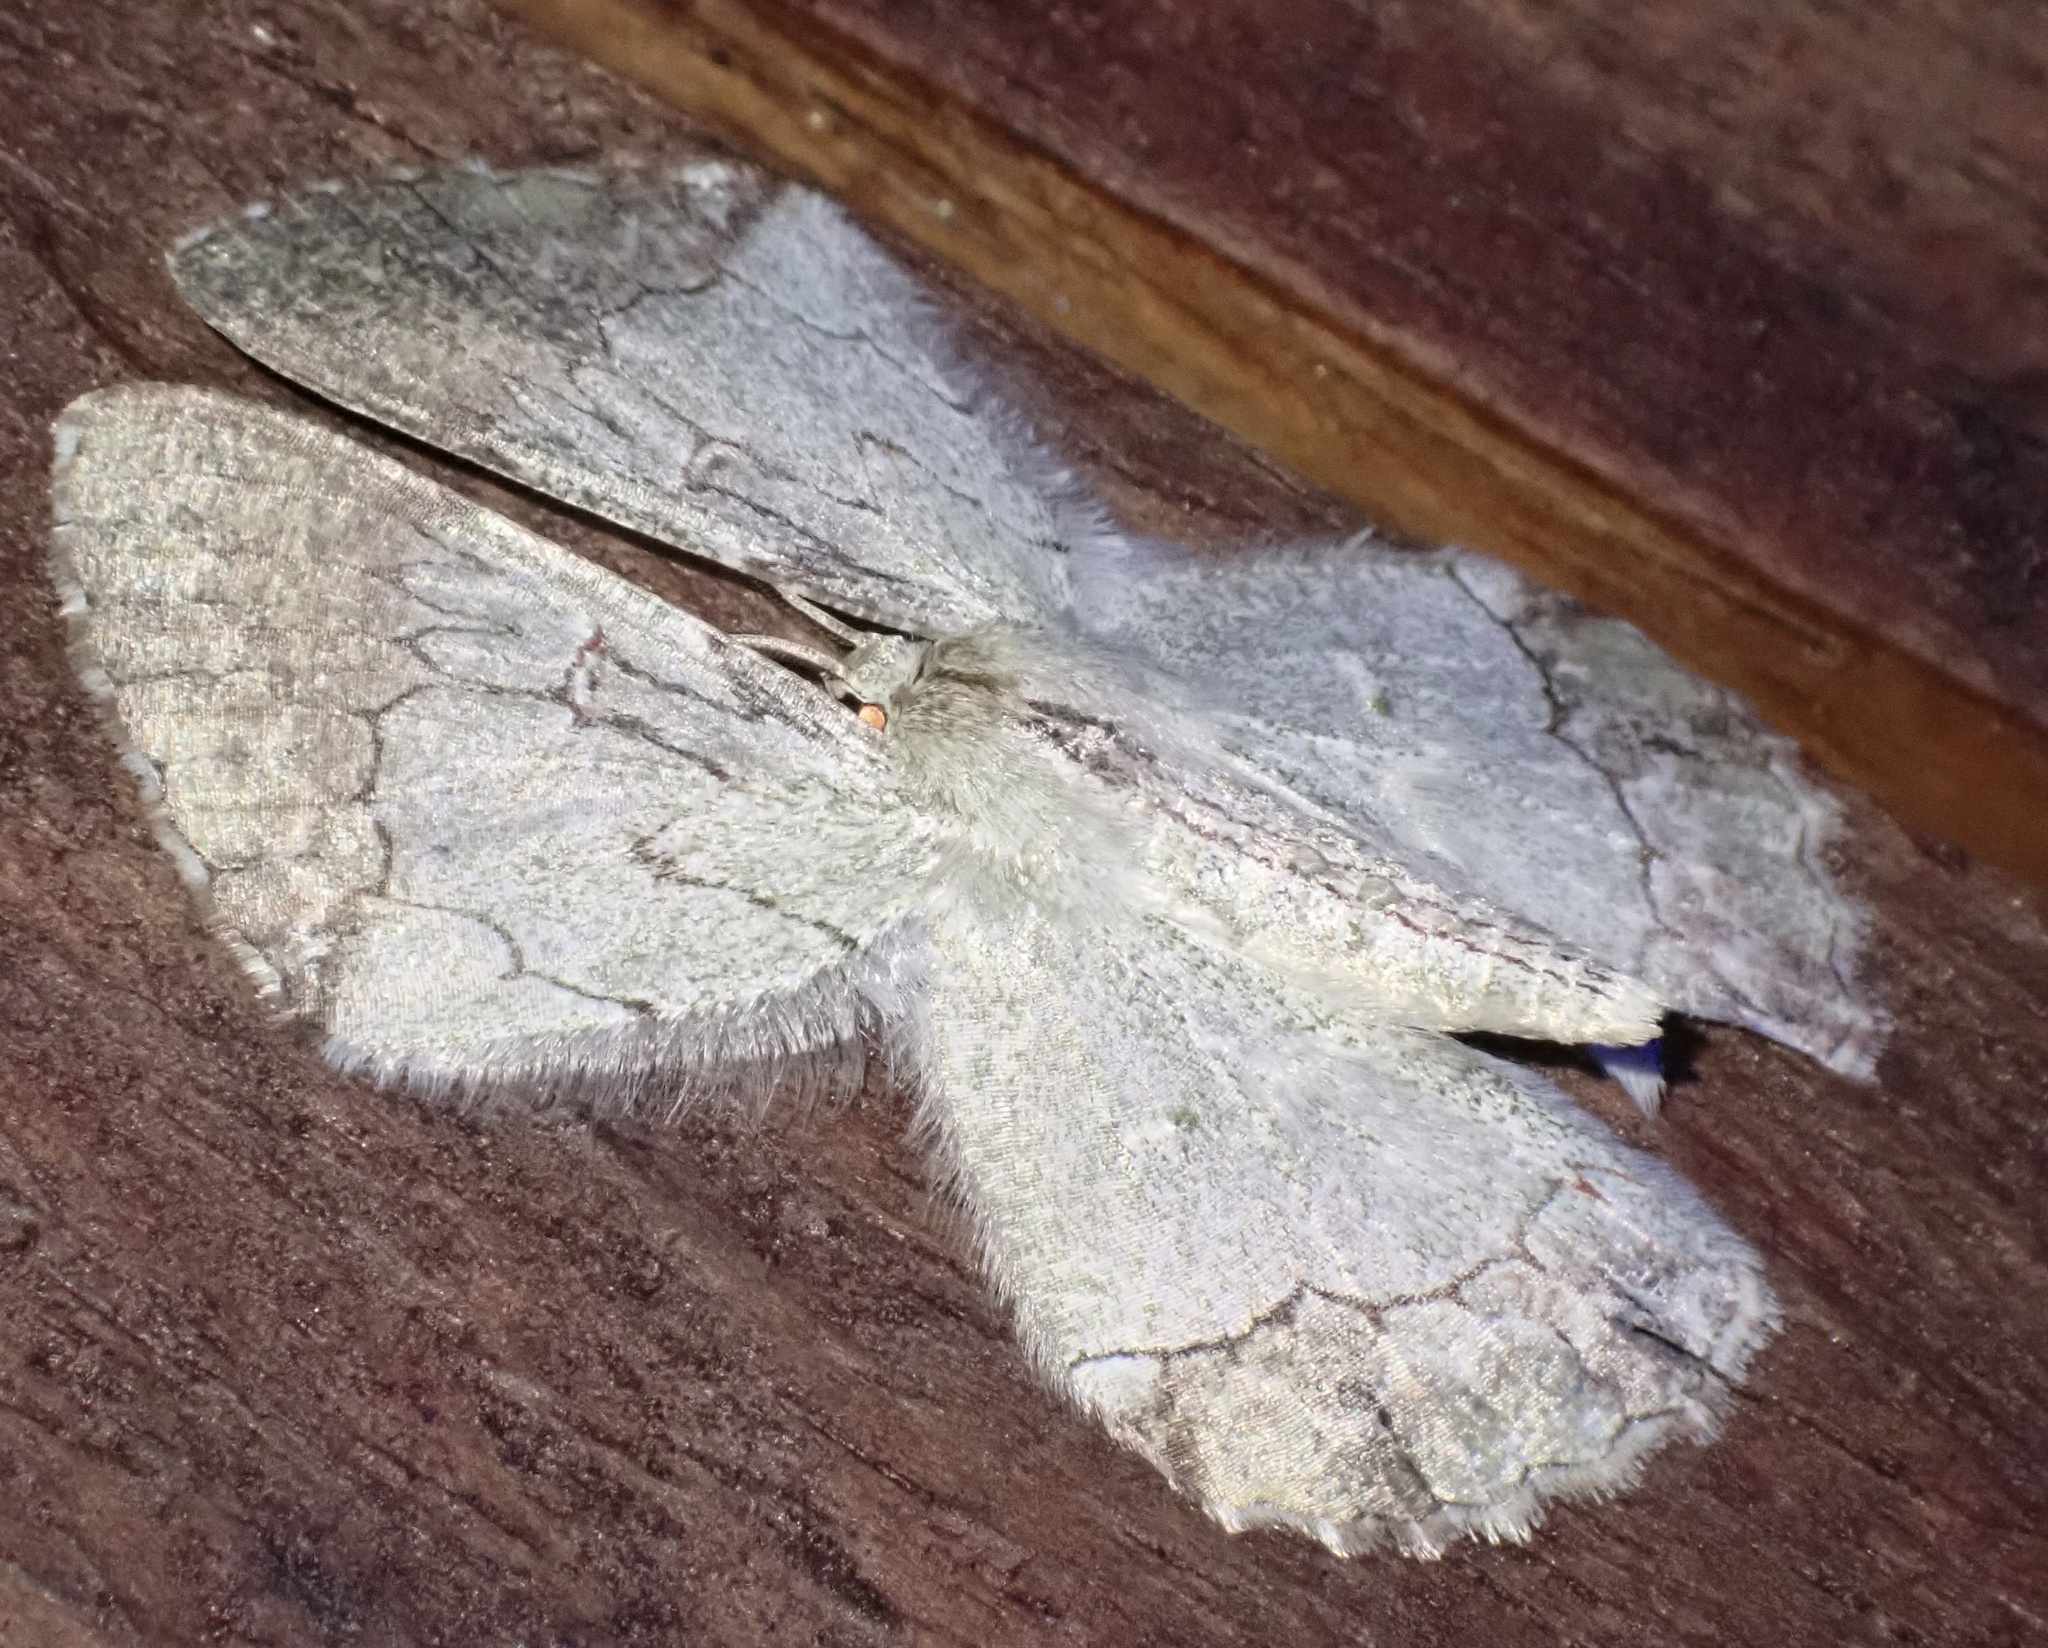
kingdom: Animalia
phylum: Arthropoda
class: Insecta
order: Lepidoptera
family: Geometridae
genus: Pingasa
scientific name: Pingasa blanda
